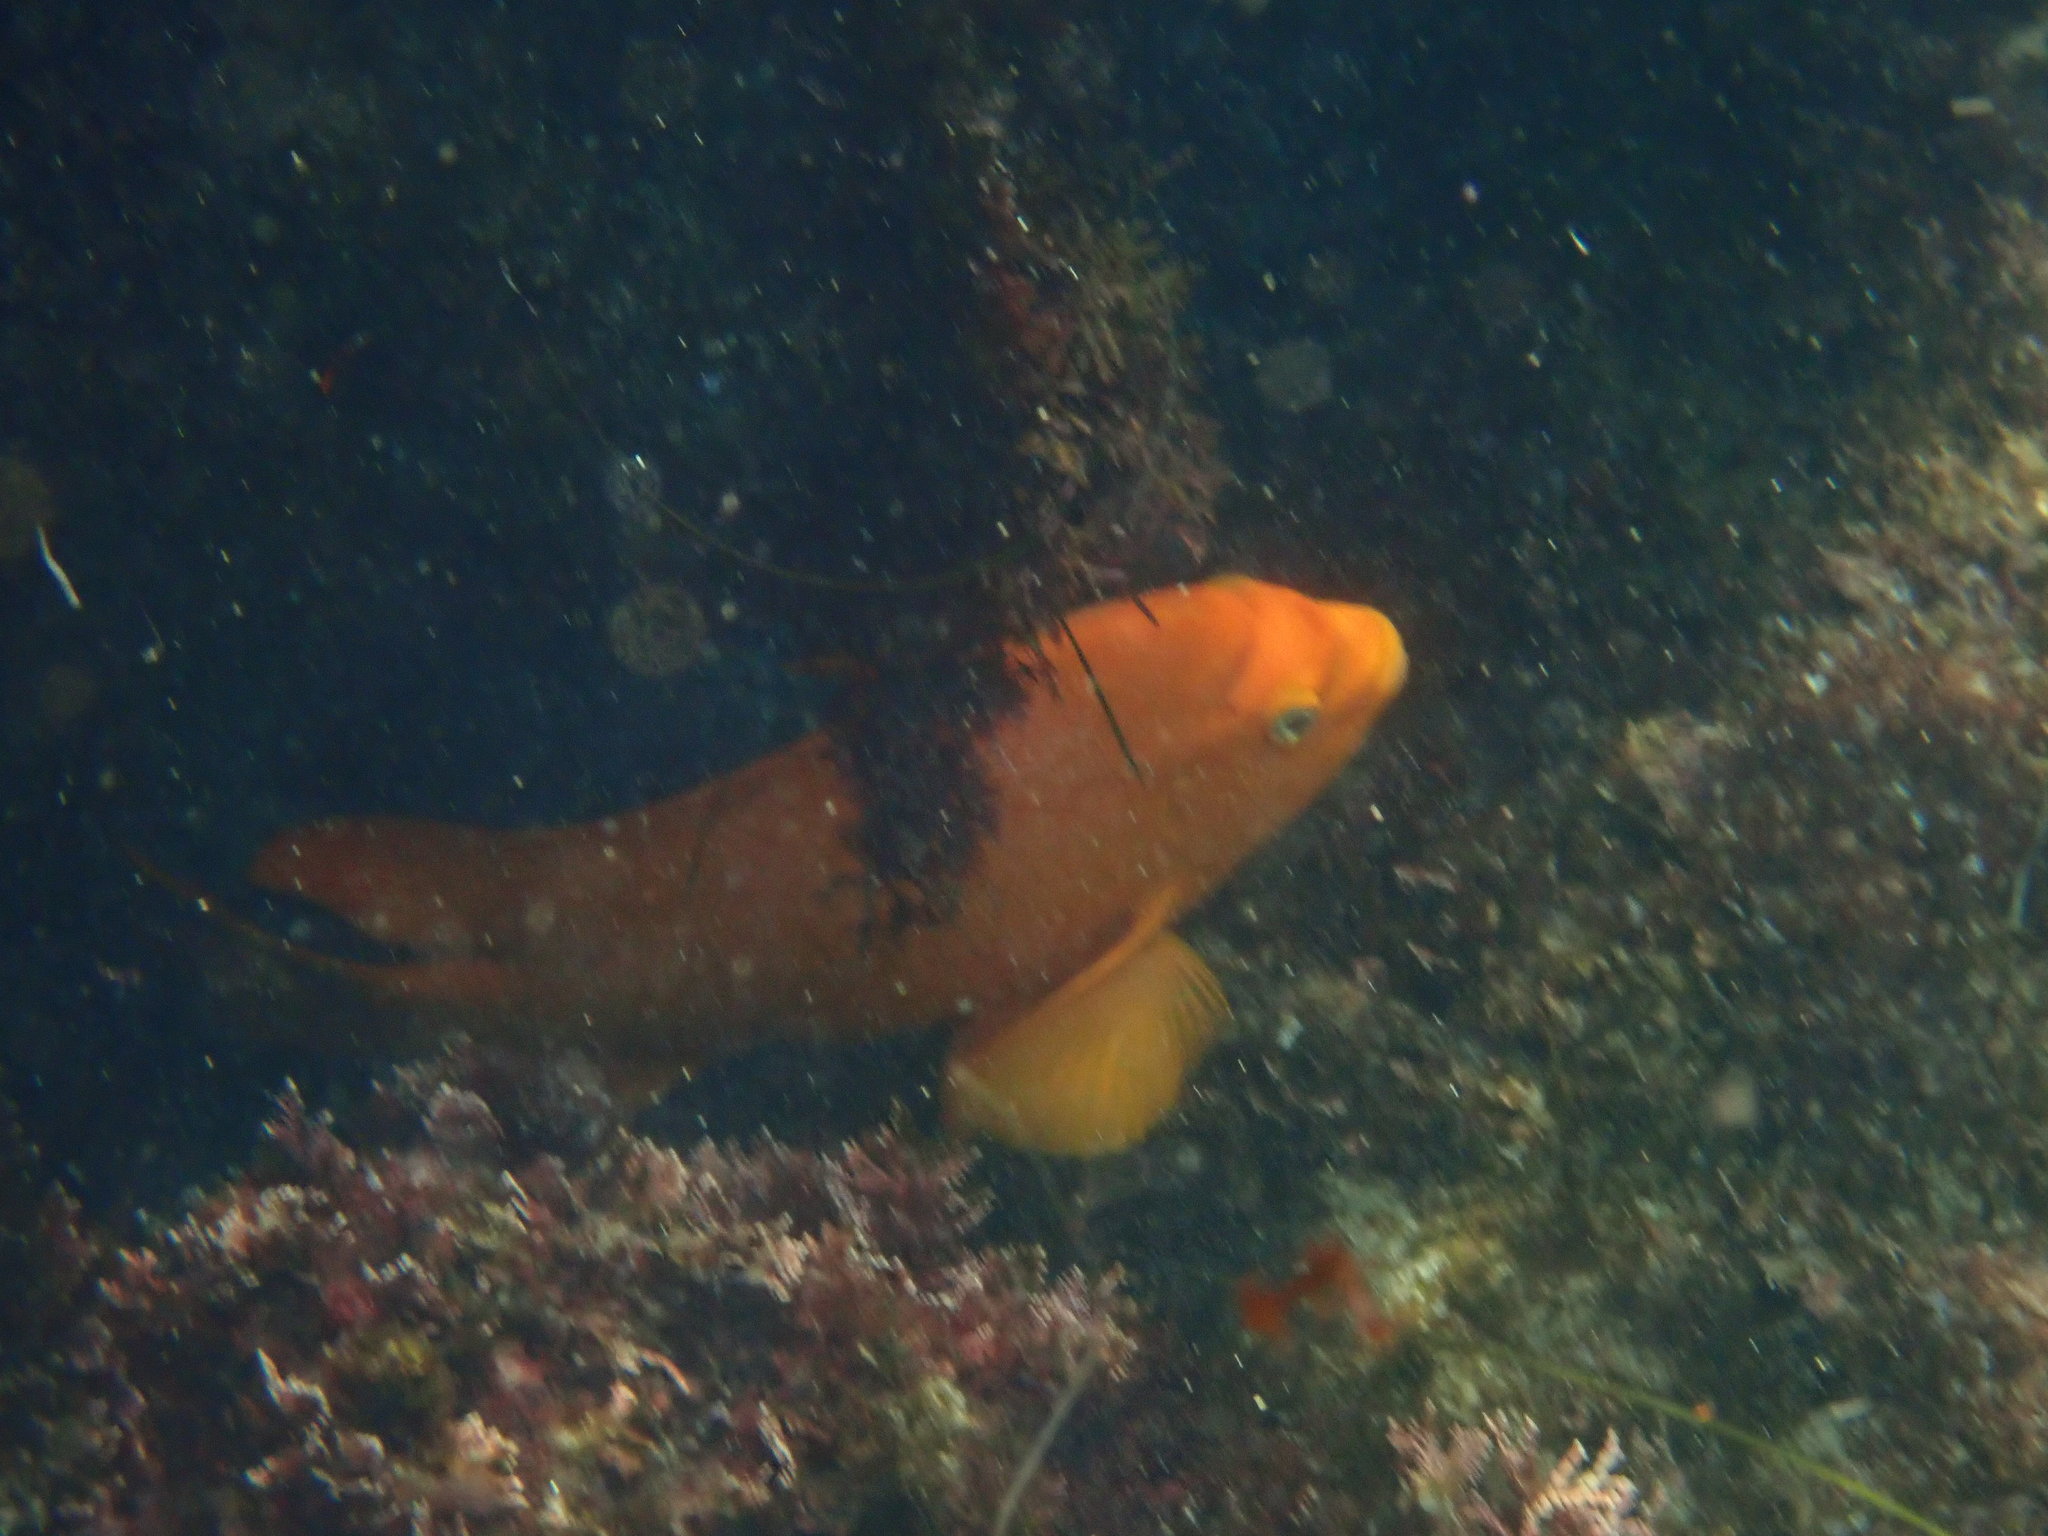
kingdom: Animalia
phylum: Chordata
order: Perciformes
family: Pomacentridae
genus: Hypsypops
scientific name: Hypsypops rubicundus
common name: Garibaldi
